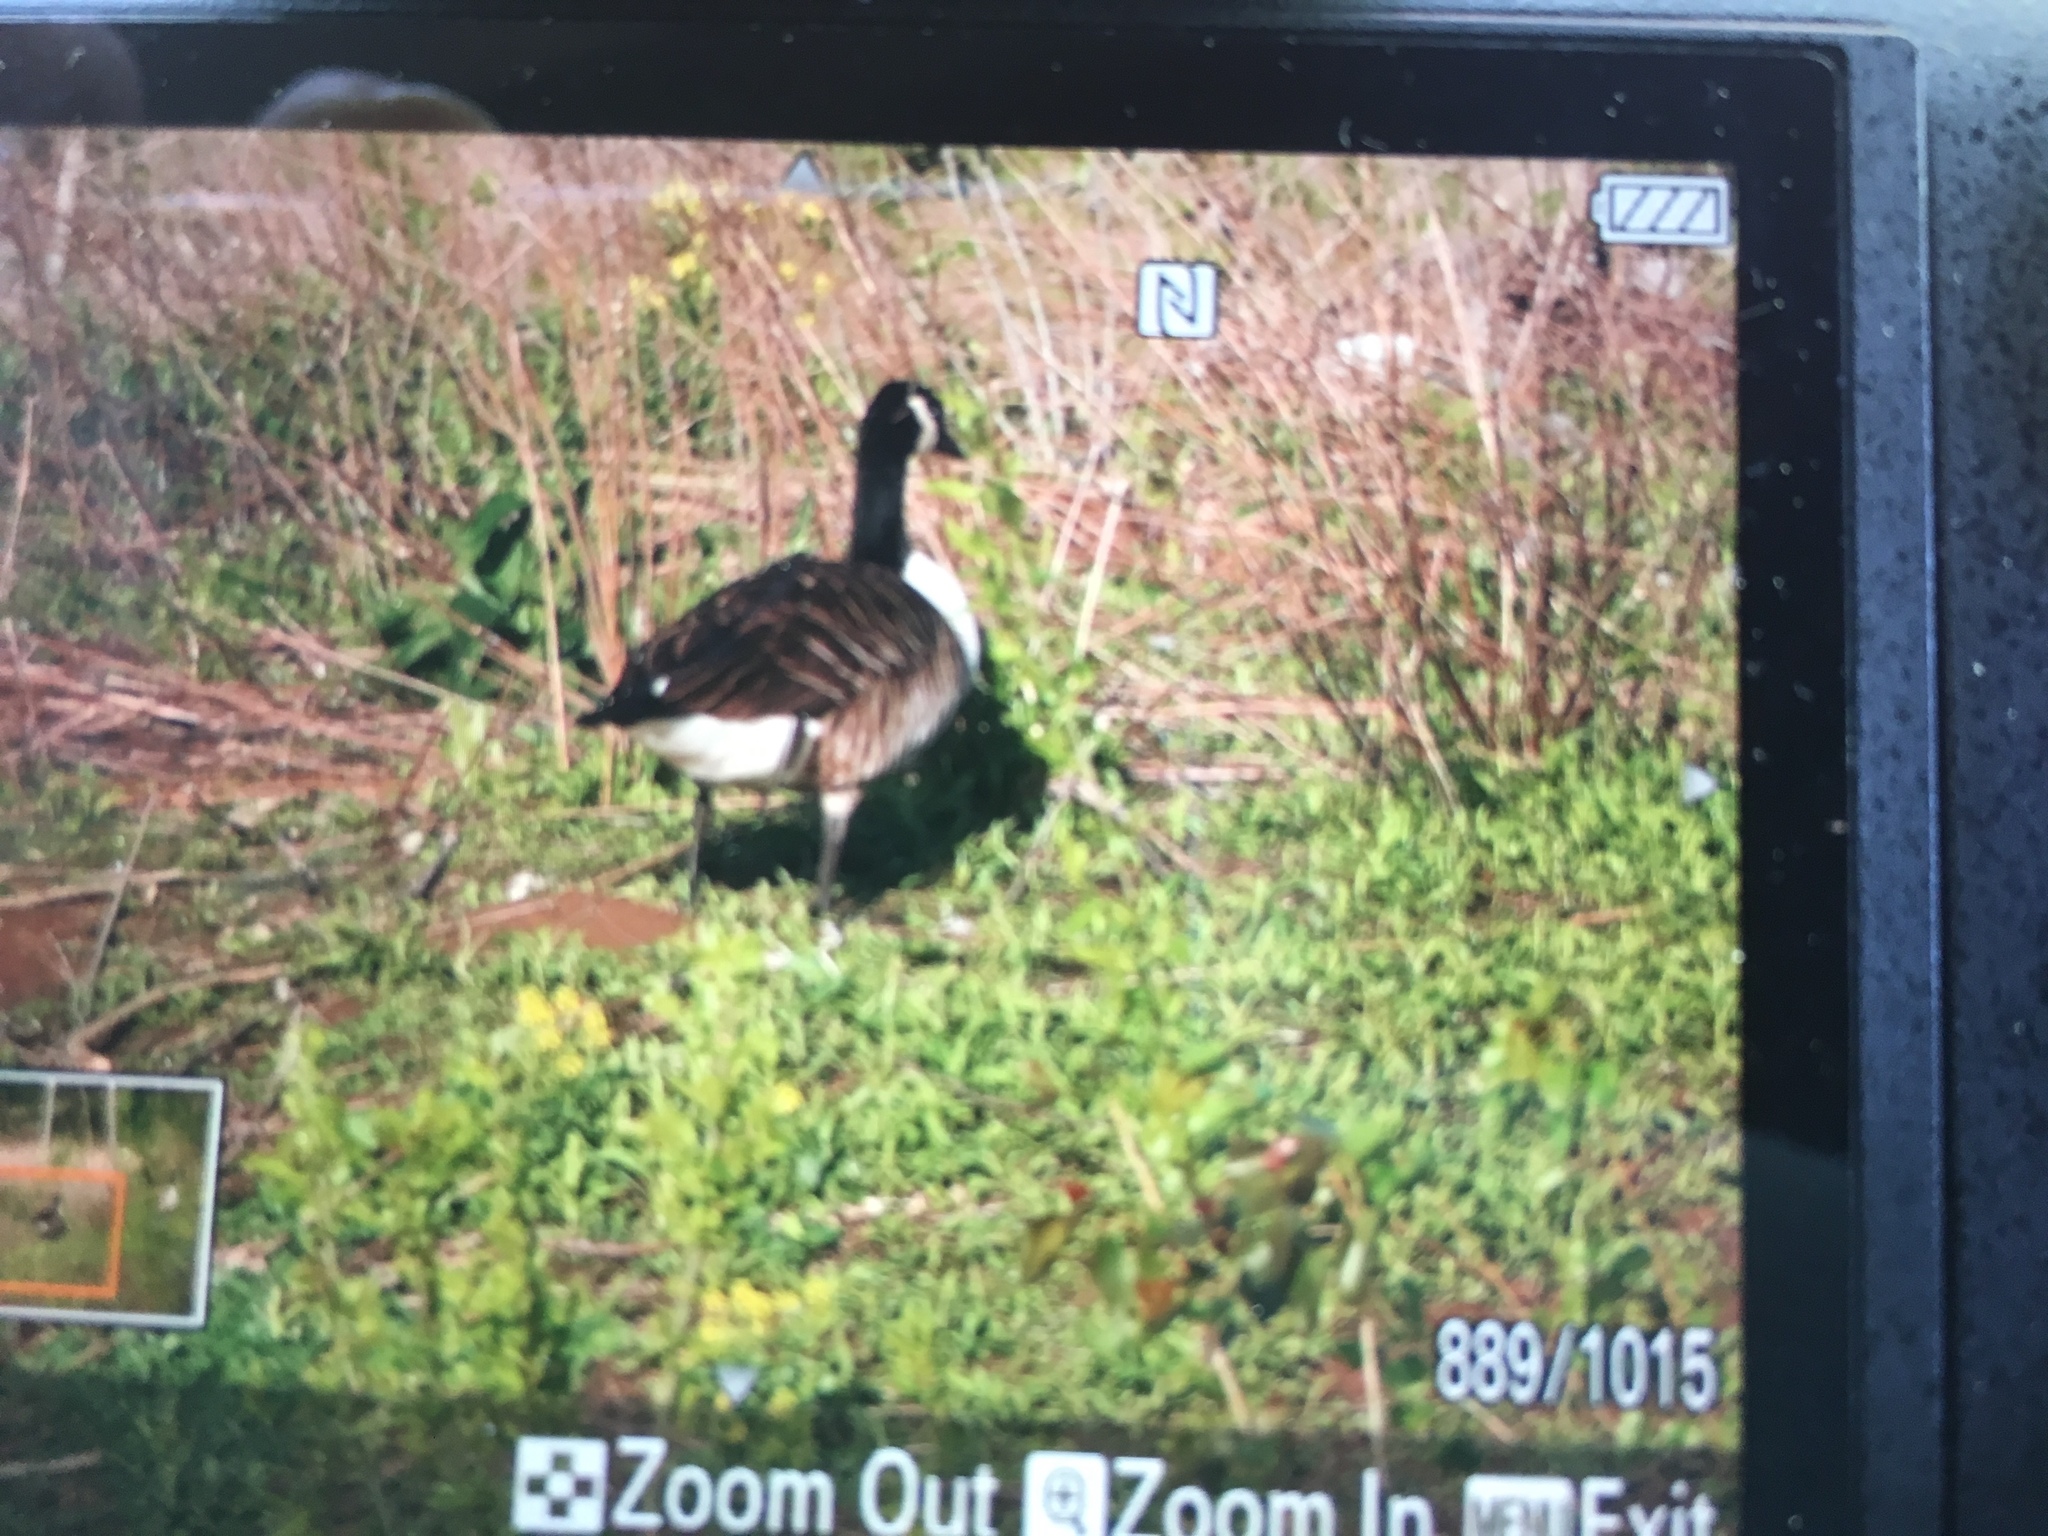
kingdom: Animalia
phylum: Chordata
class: Aves
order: Anseriformes
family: Anatidae
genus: Branta
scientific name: Branta canadensis
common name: Canada goose
